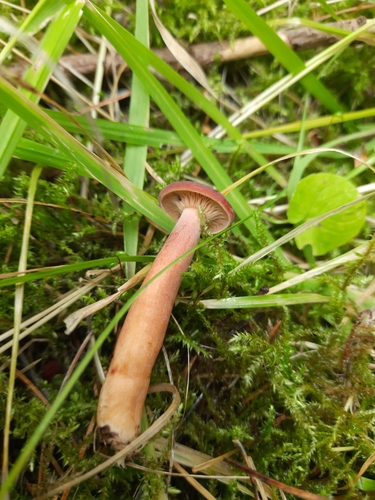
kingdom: Fungi
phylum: Basidiomycota
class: Agaricomycetes
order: Russulales
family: Russulaceae
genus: Lactarius
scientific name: Lactarius rufus
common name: Rufous milk-cap
